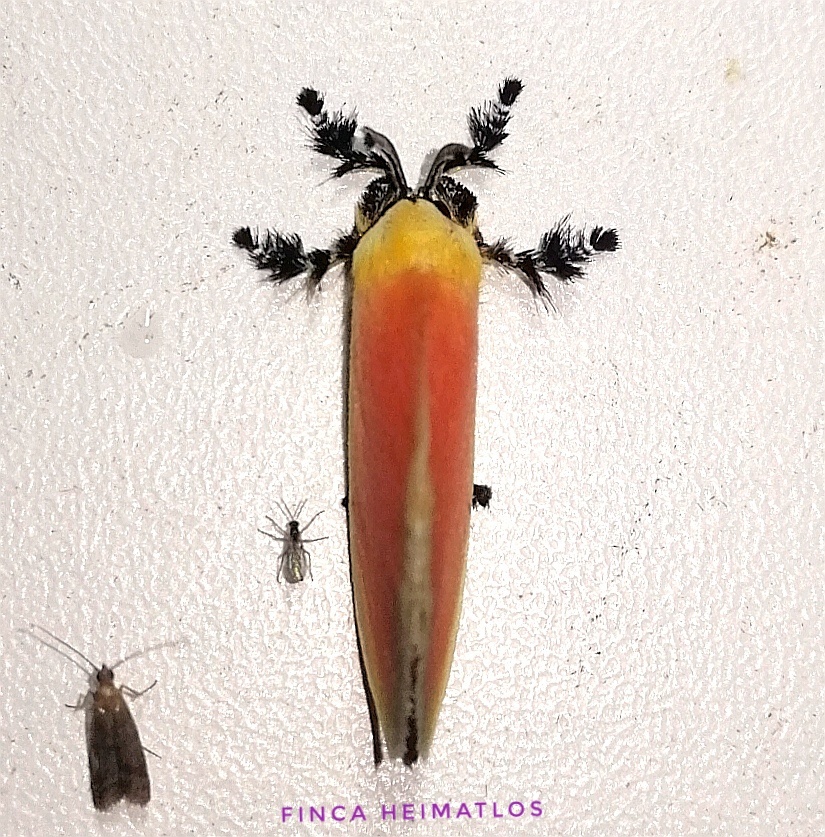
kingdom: Animalia
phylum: Arthropoda
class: Insecta
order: Lepidoptera
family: Dalceridae
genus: Dalcera
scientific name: Dalcera abrasa
